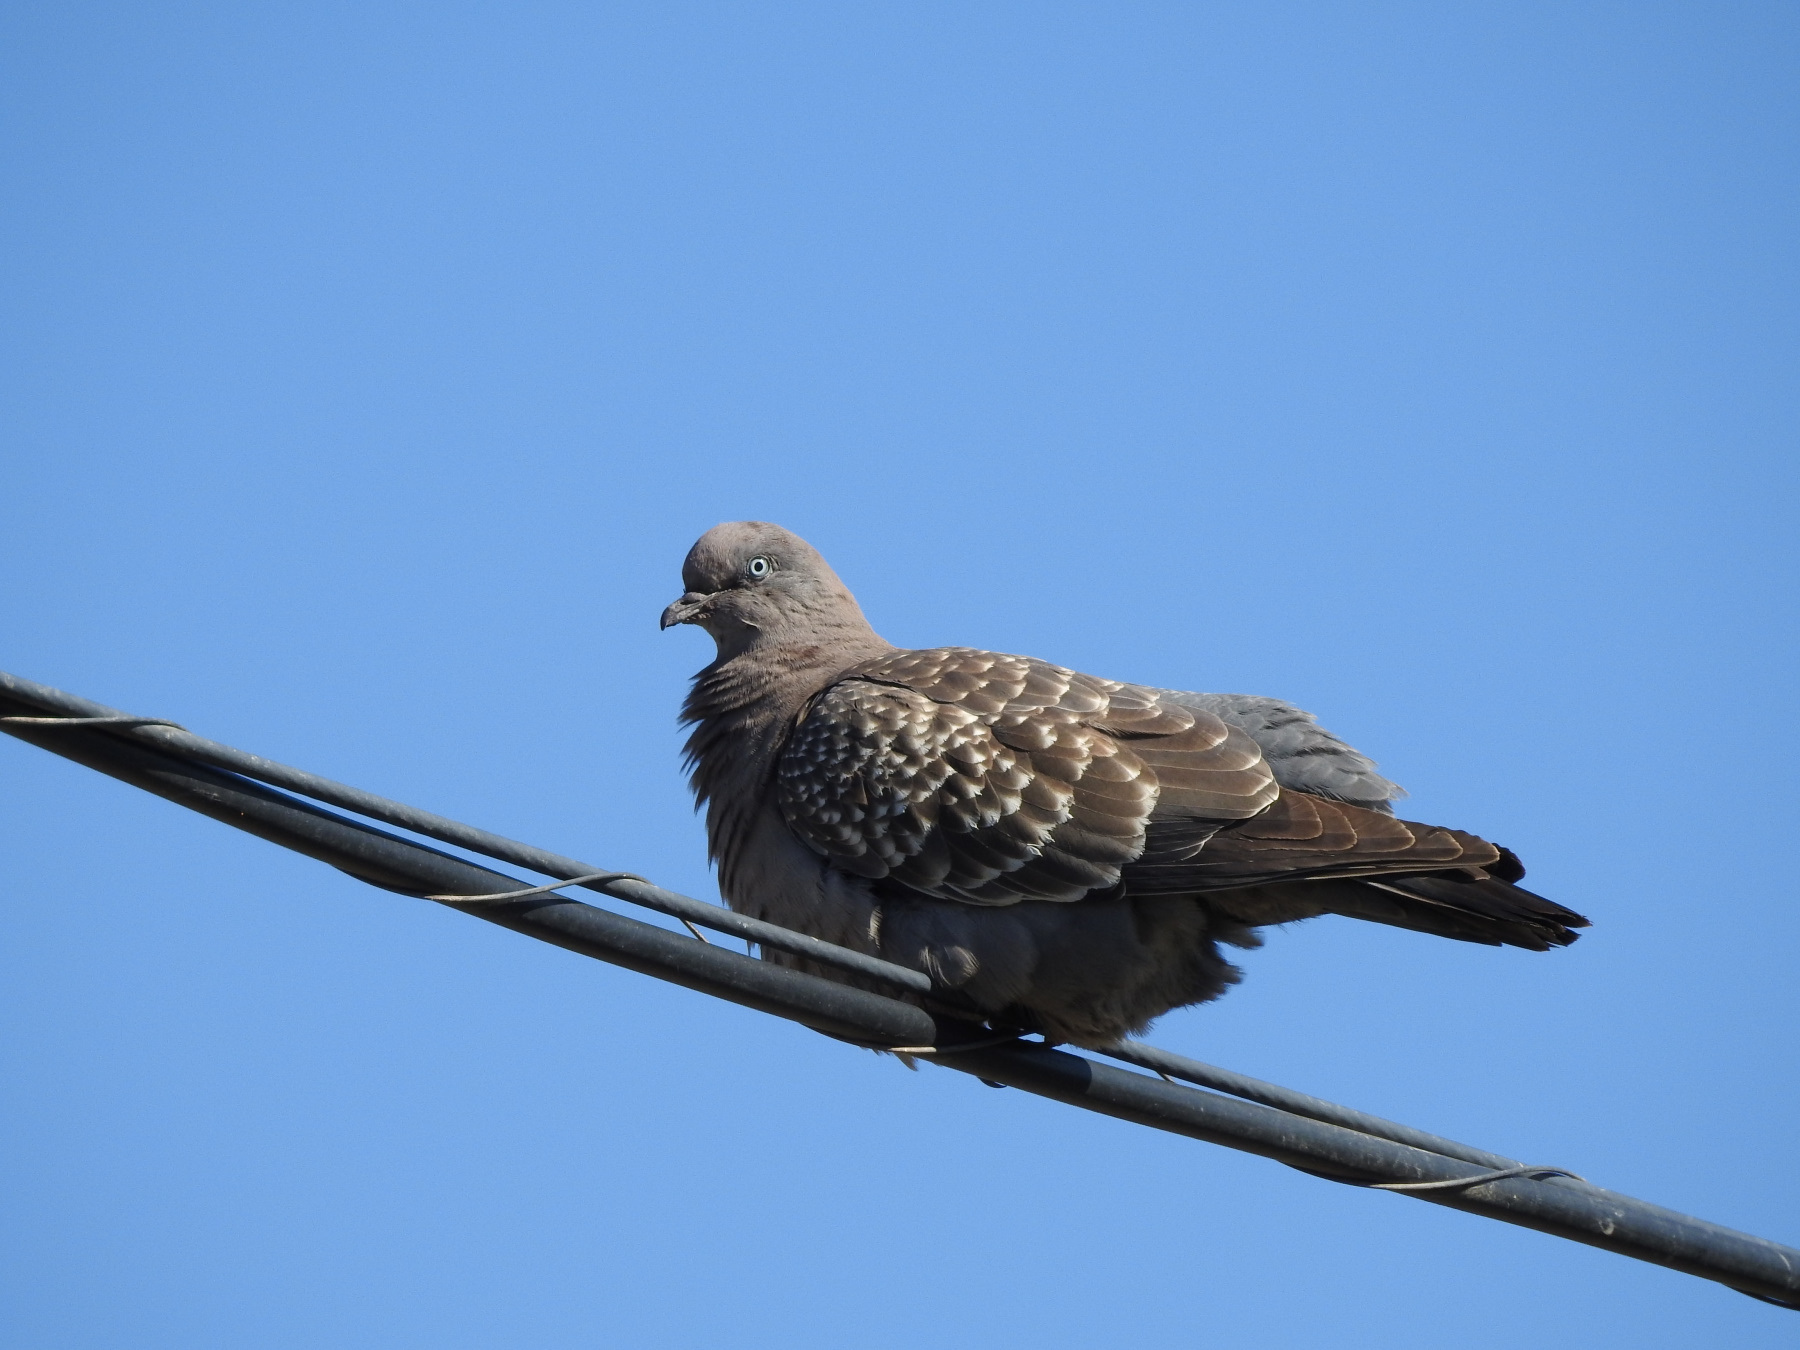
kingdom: Animalia
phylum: Chordata
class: Aves
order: Columbiformes
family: Columbidae
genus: Patagioenas
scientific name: Patagioenas maculosa
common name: Spot-winged pigeon
